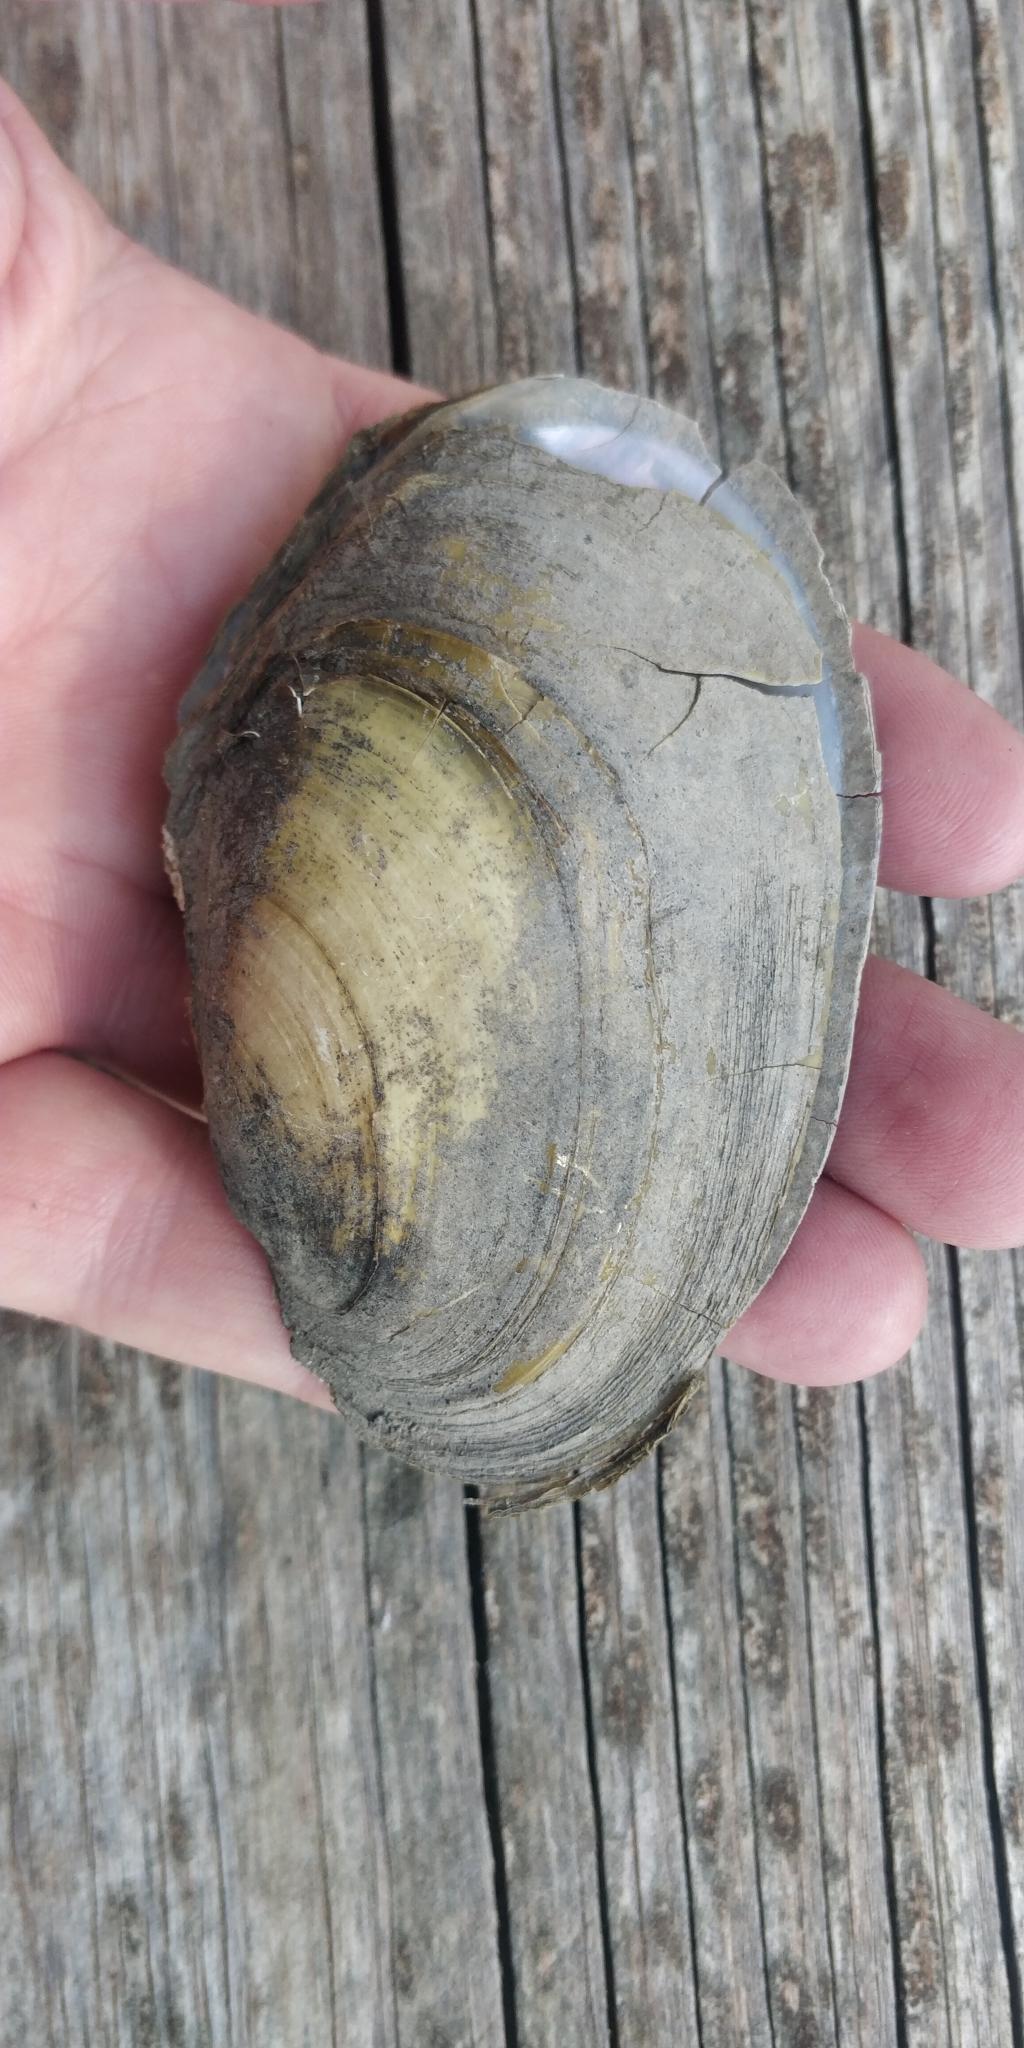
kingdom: Animalia
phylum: Mollusca
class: Bivalvia
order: Unionida
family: Unionidae
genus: Potamilus
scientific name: Potamilus fragilis
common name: Fragile papershell
